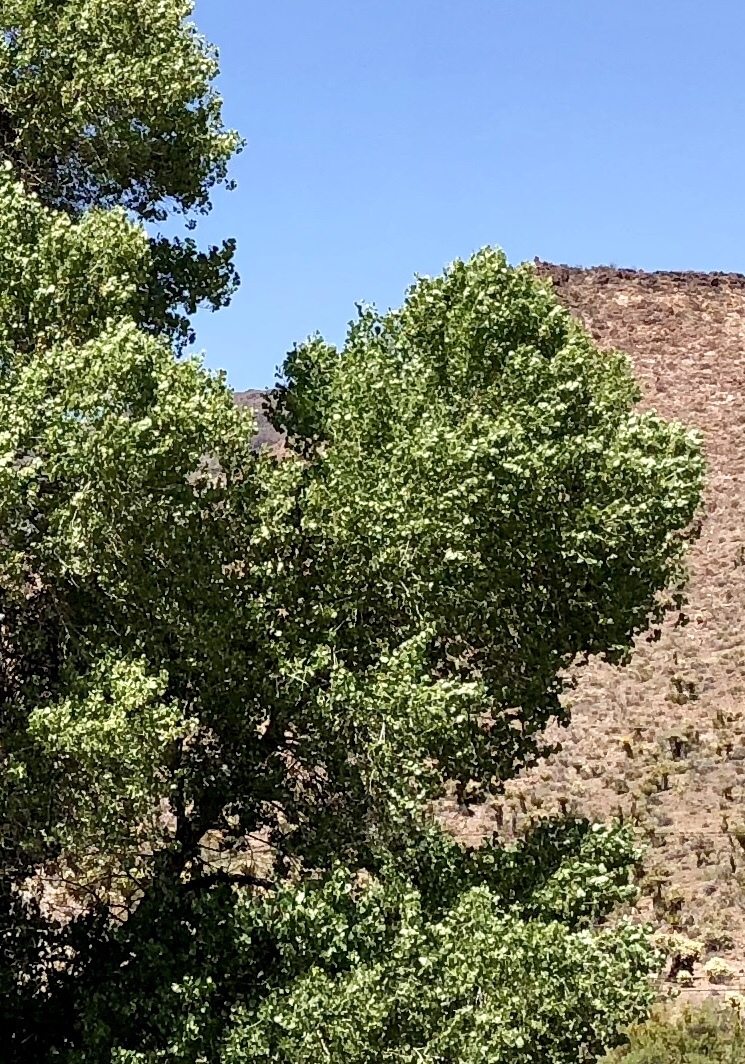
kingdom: Plantae
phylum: Tracheophyta
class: Magnoliopsida
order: Malpighiales
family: Salicaceae
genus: Populus
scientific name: Populus fremontii
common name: Fremont's cottonwood
